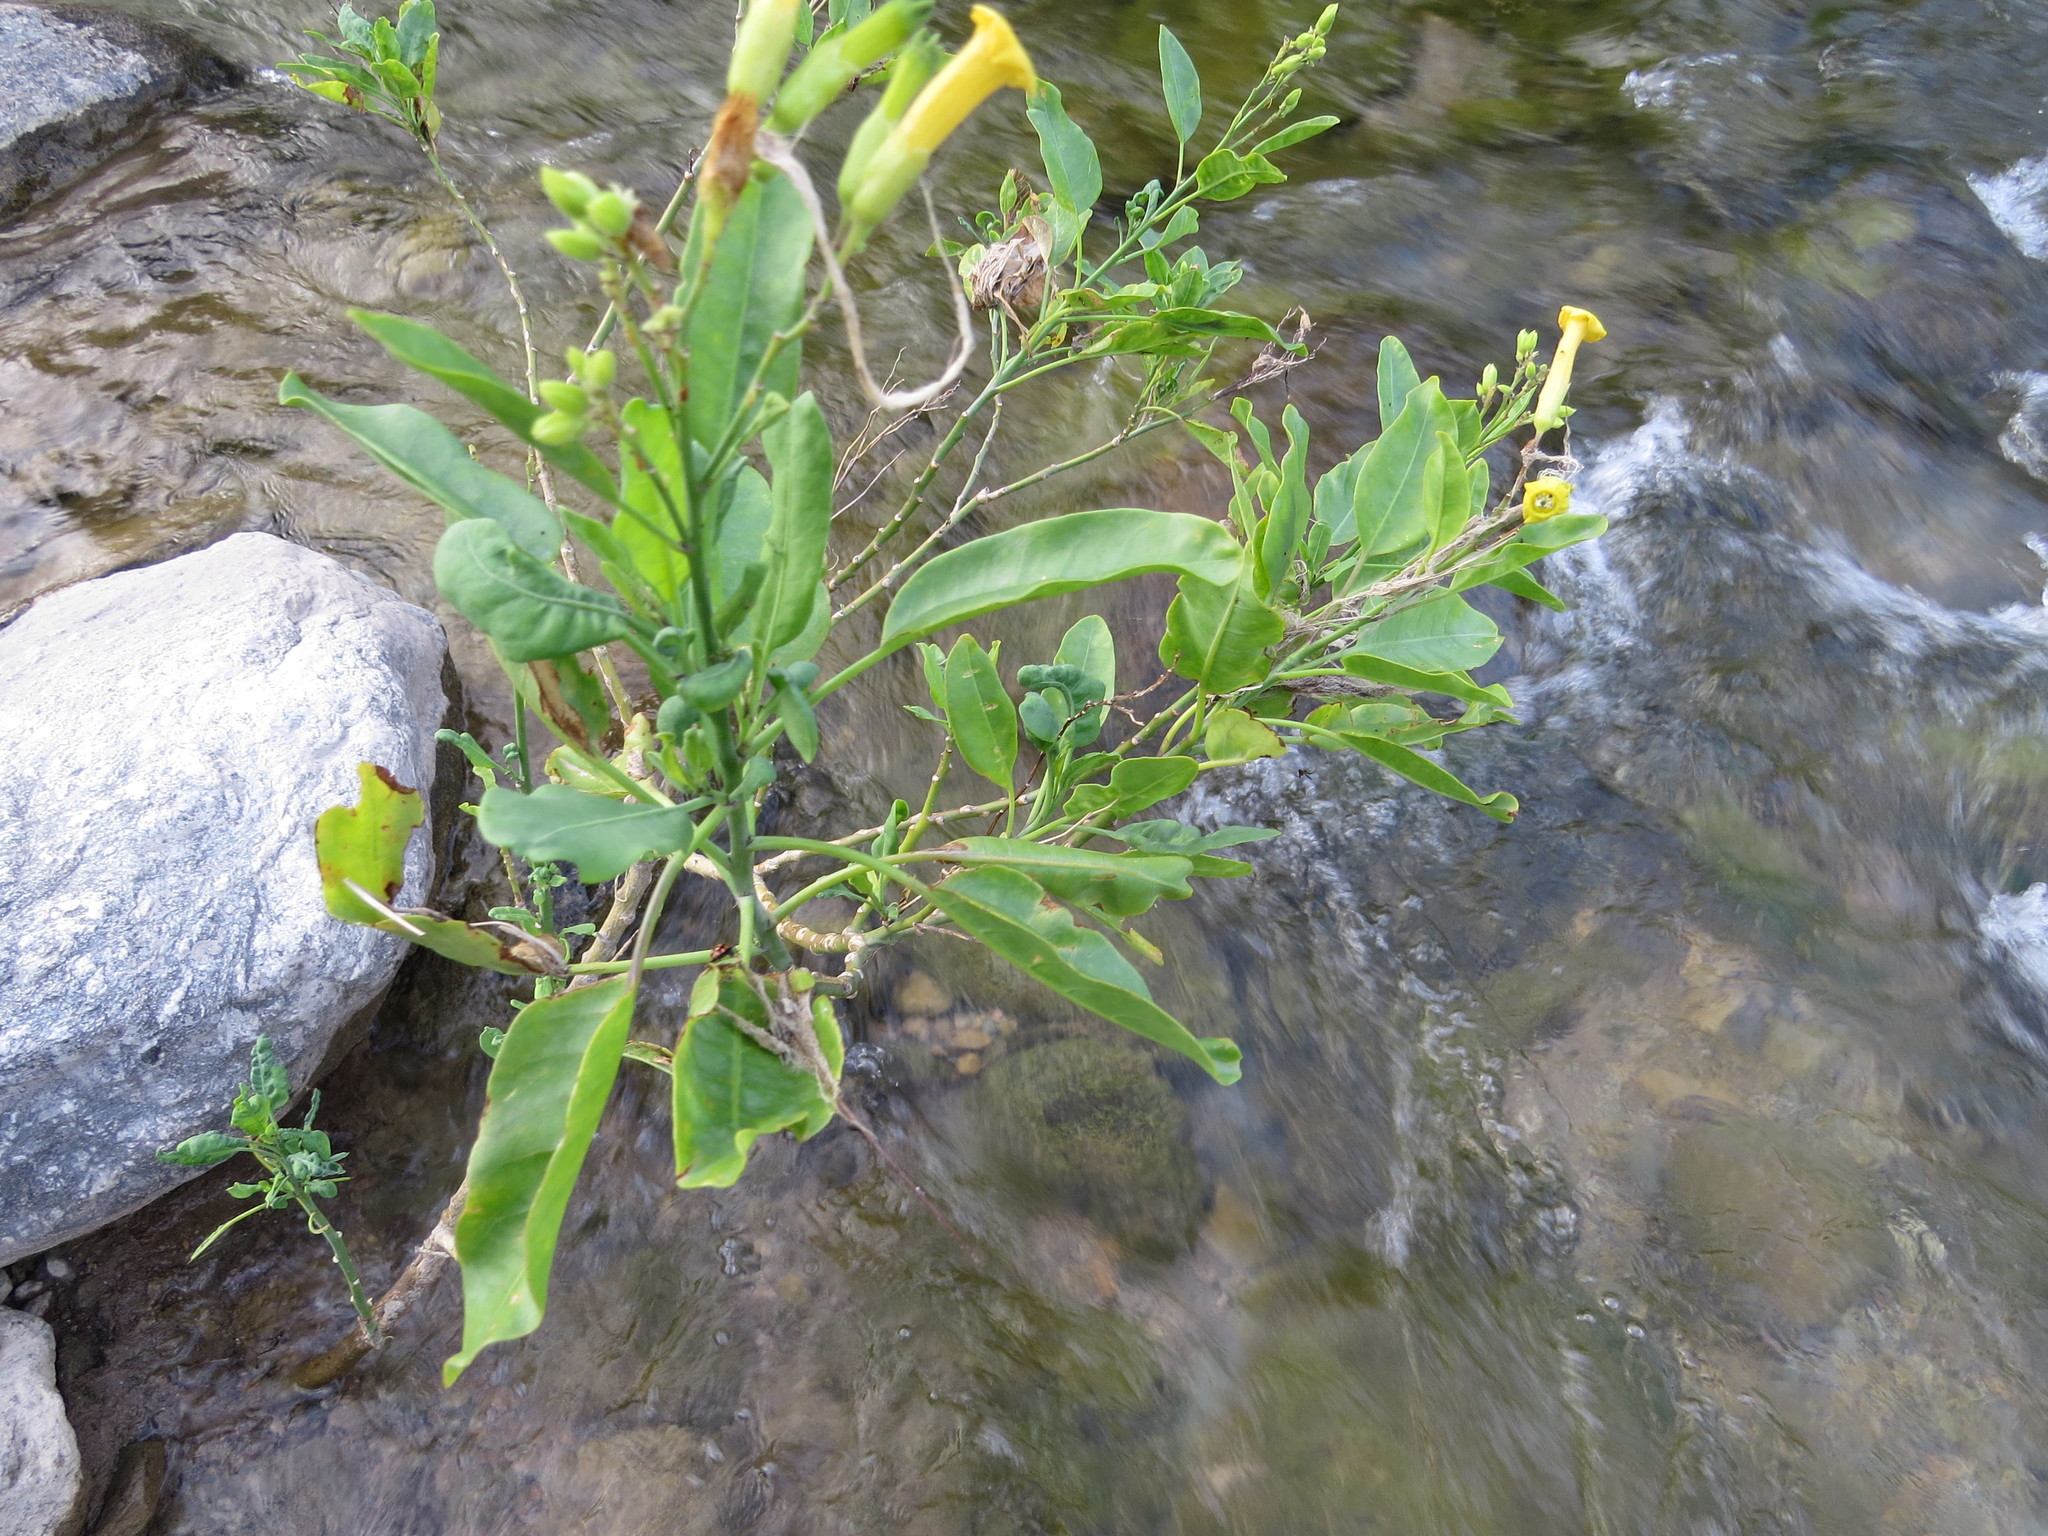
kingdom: Plantae
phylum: Tracheophyta
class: Magnoliopsida
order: Solanales
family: Solanaceae
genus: Nicotiana
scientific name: Nicotiana glauca
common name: Tree tobacco
